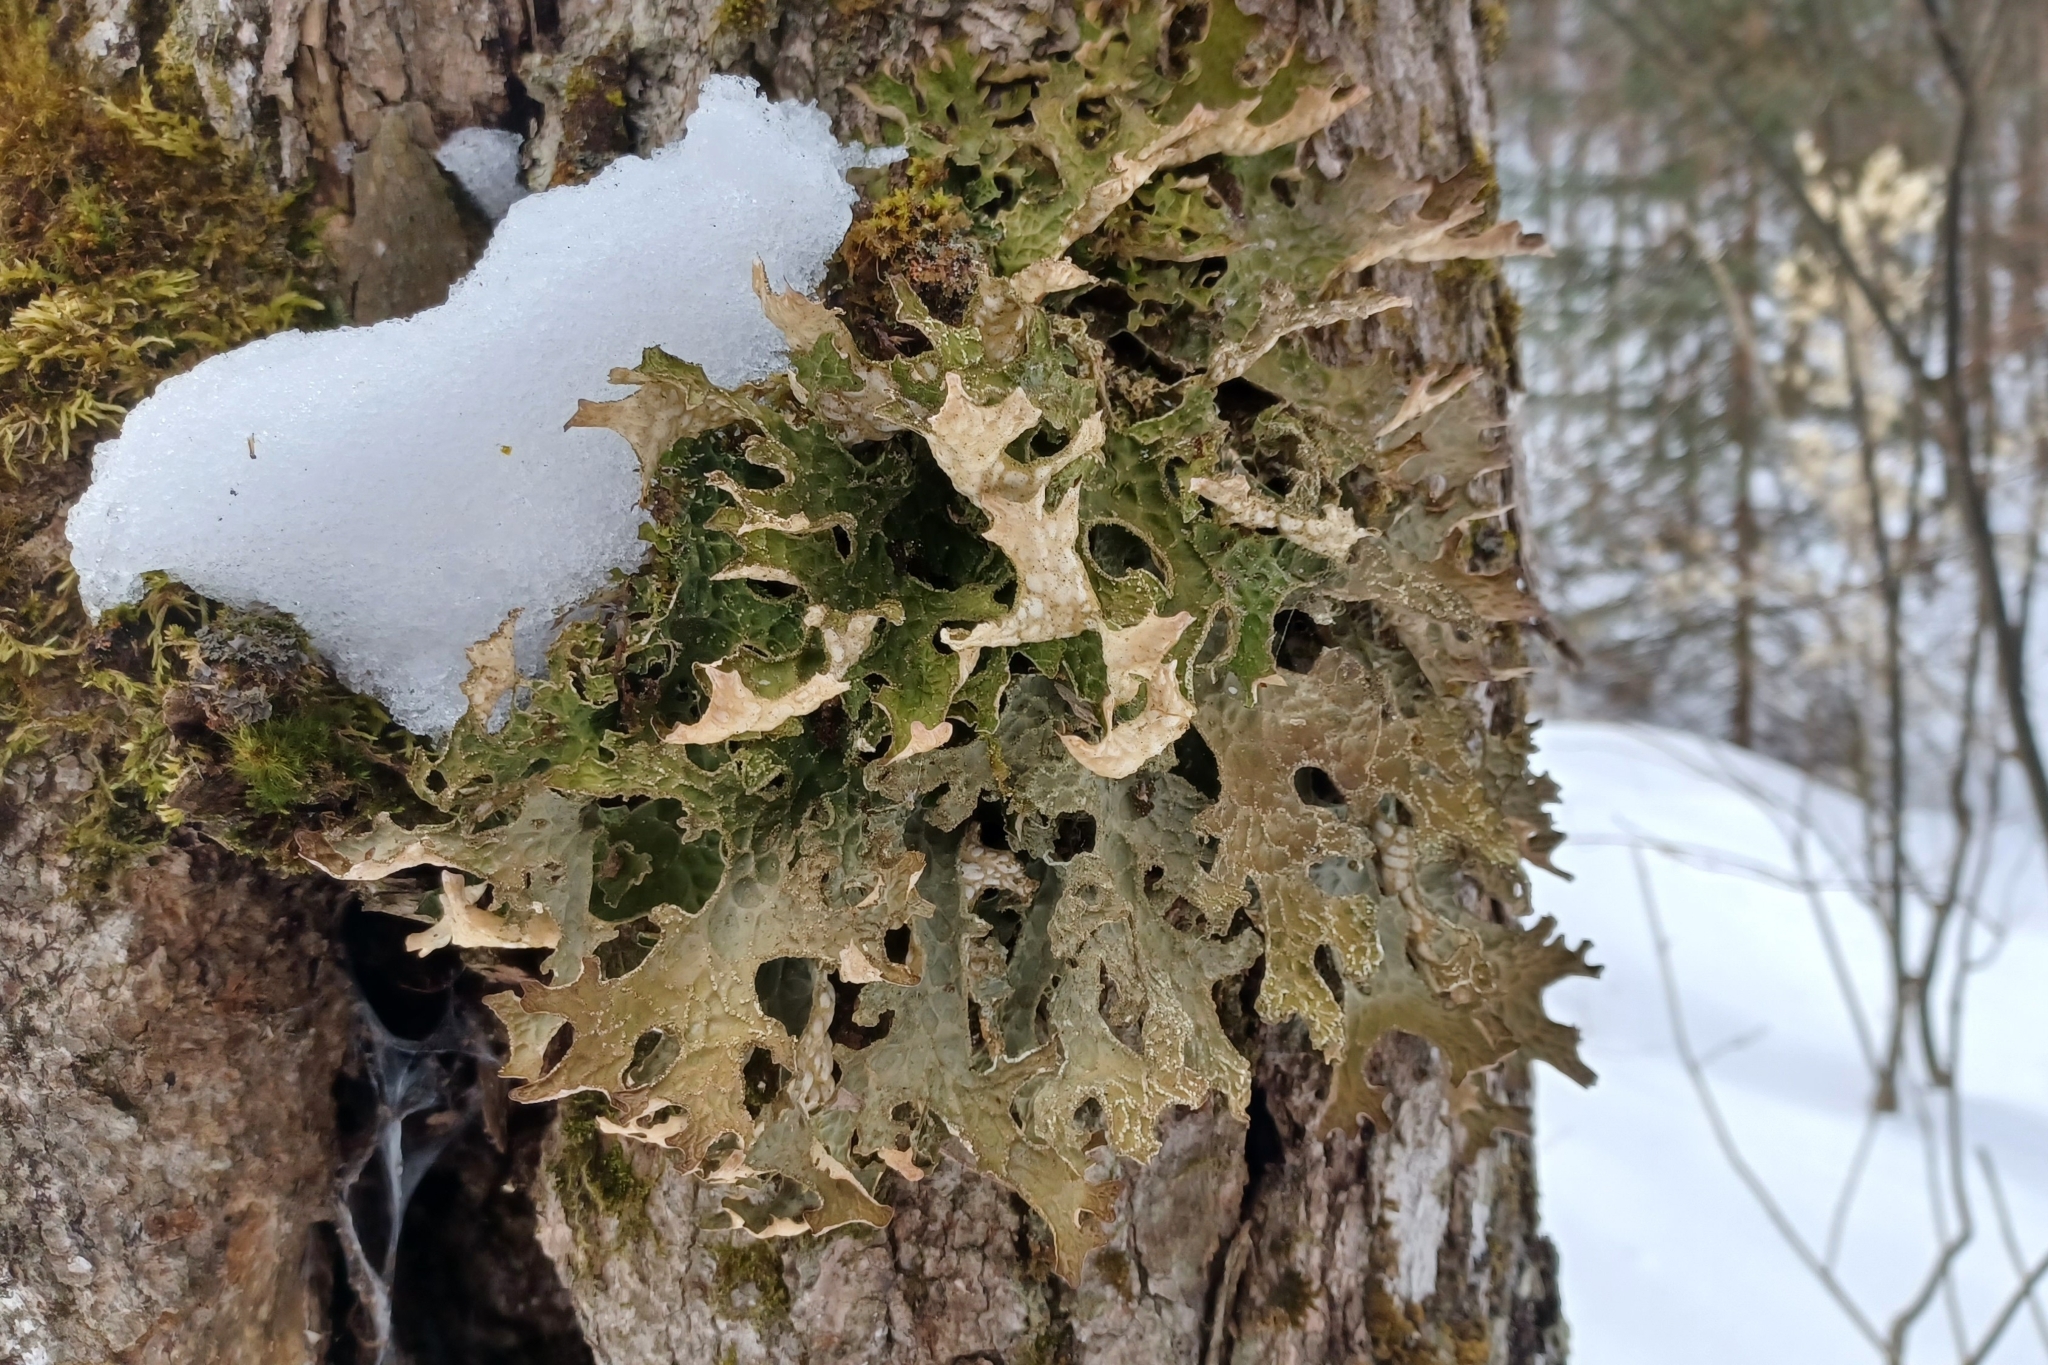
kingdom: Fungi
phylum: Ascomycota
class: Lecanoromycetes
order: Peltigerales
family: Lobariaceae
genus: Lobaria
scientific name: Lobaria pulmonaria
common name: Lungwort
